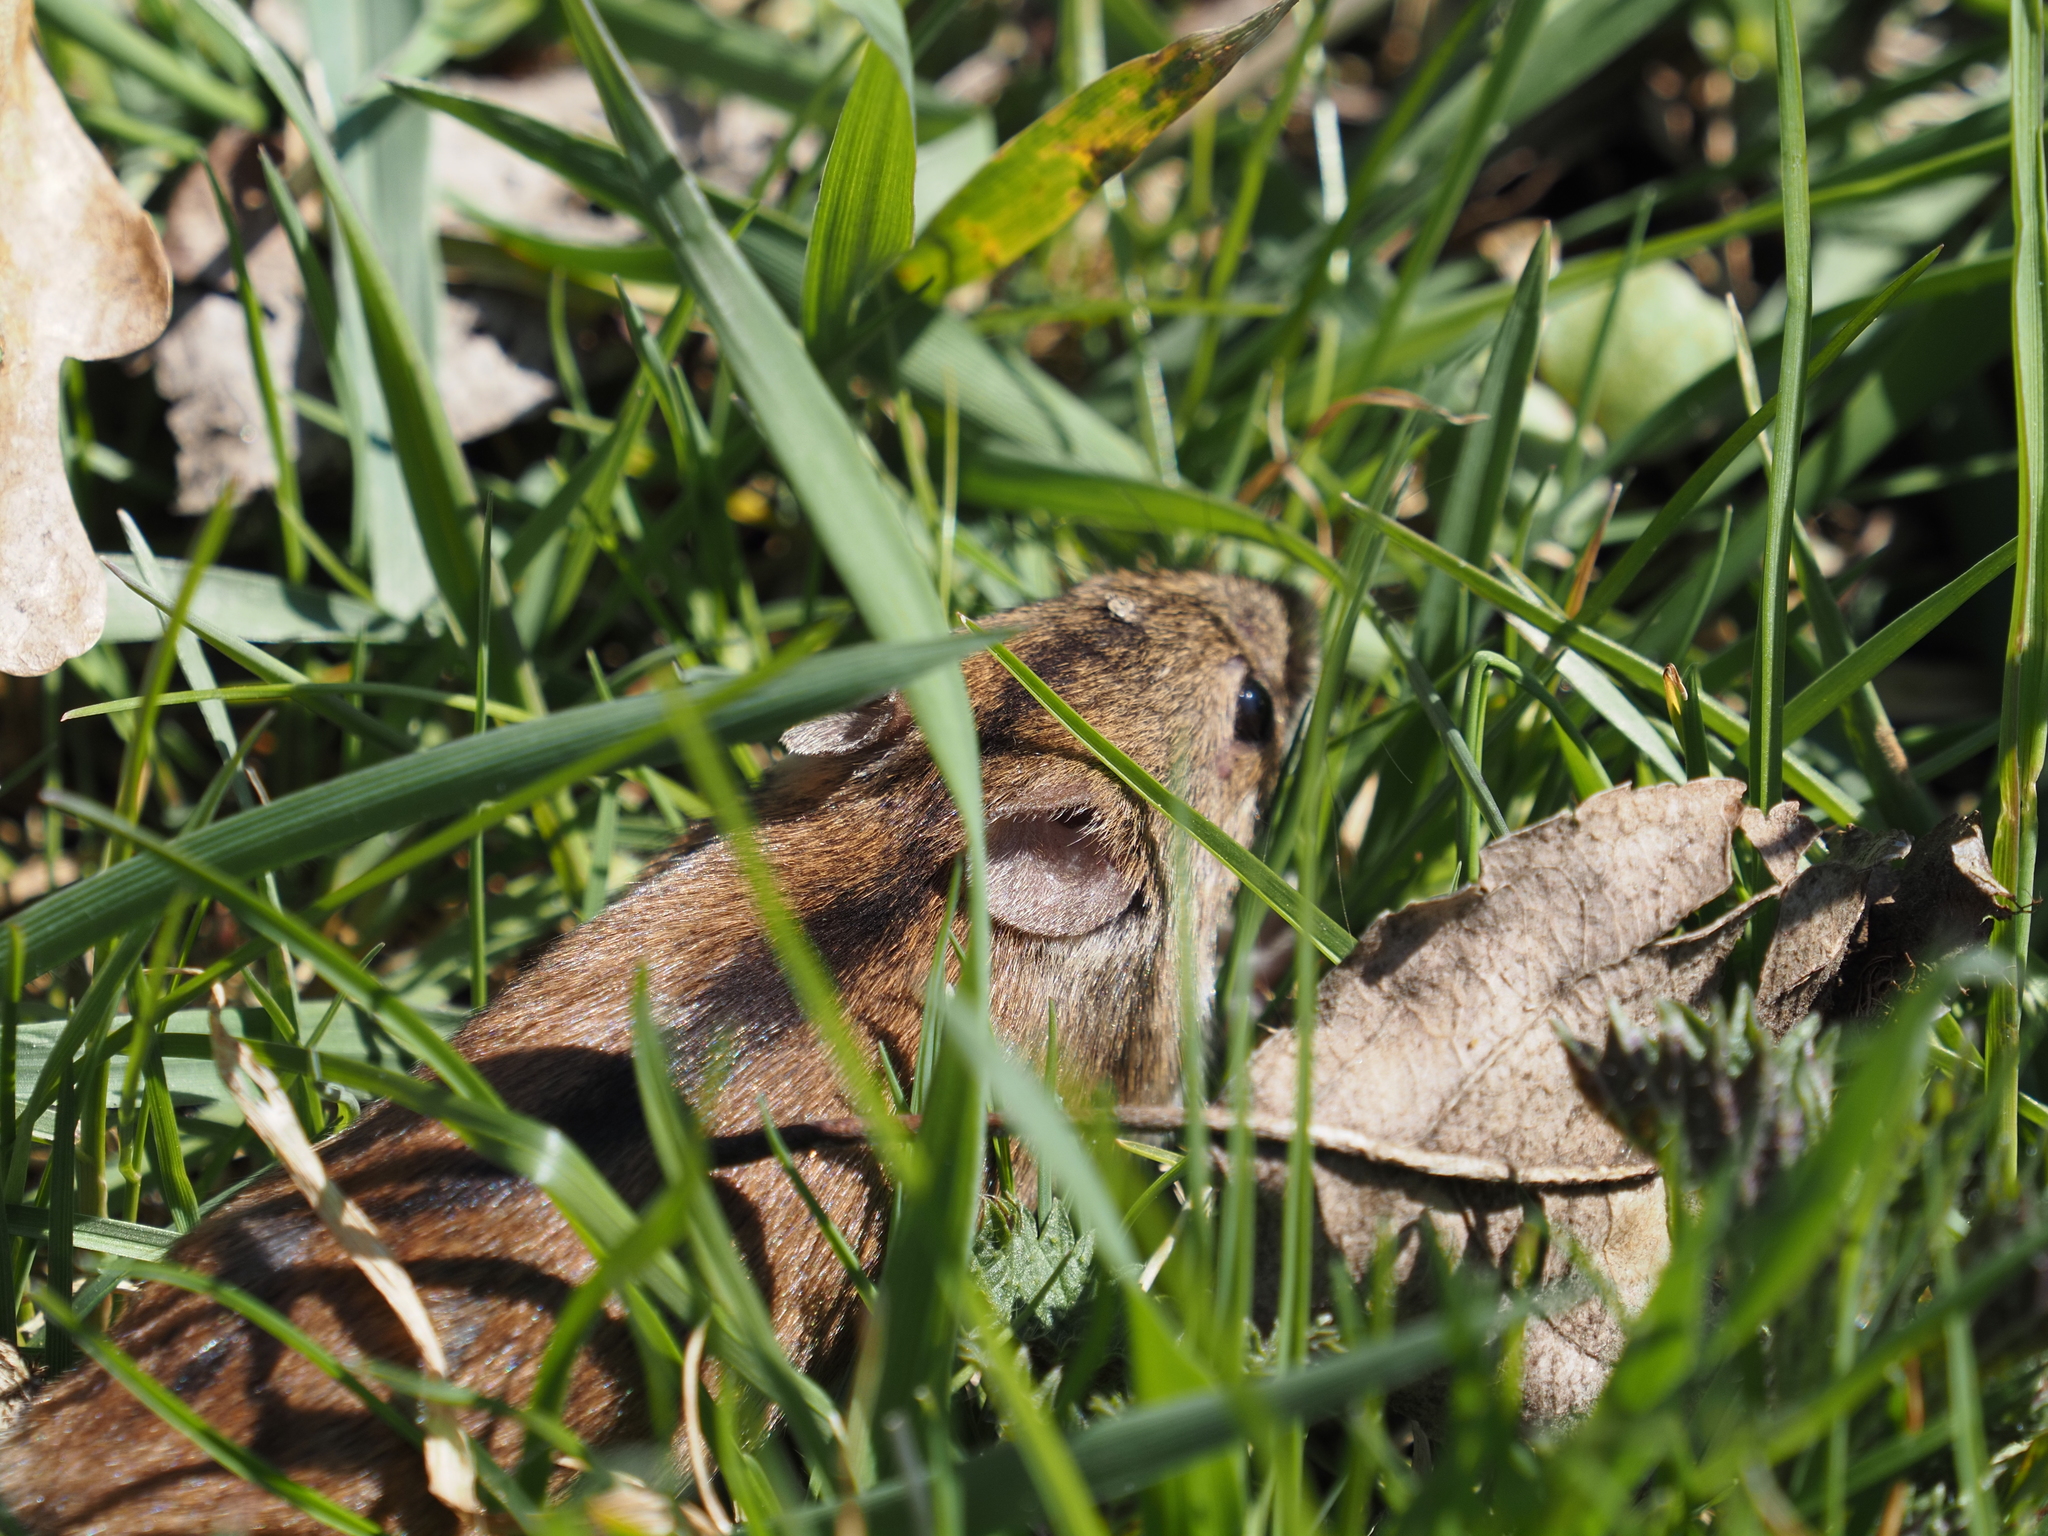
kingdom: Animalia
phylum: Chordata
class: Mammalia
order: Rodentia
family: Muridae
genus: Apodemus
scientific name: Apodemus agrarius
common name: Striped field mouse
